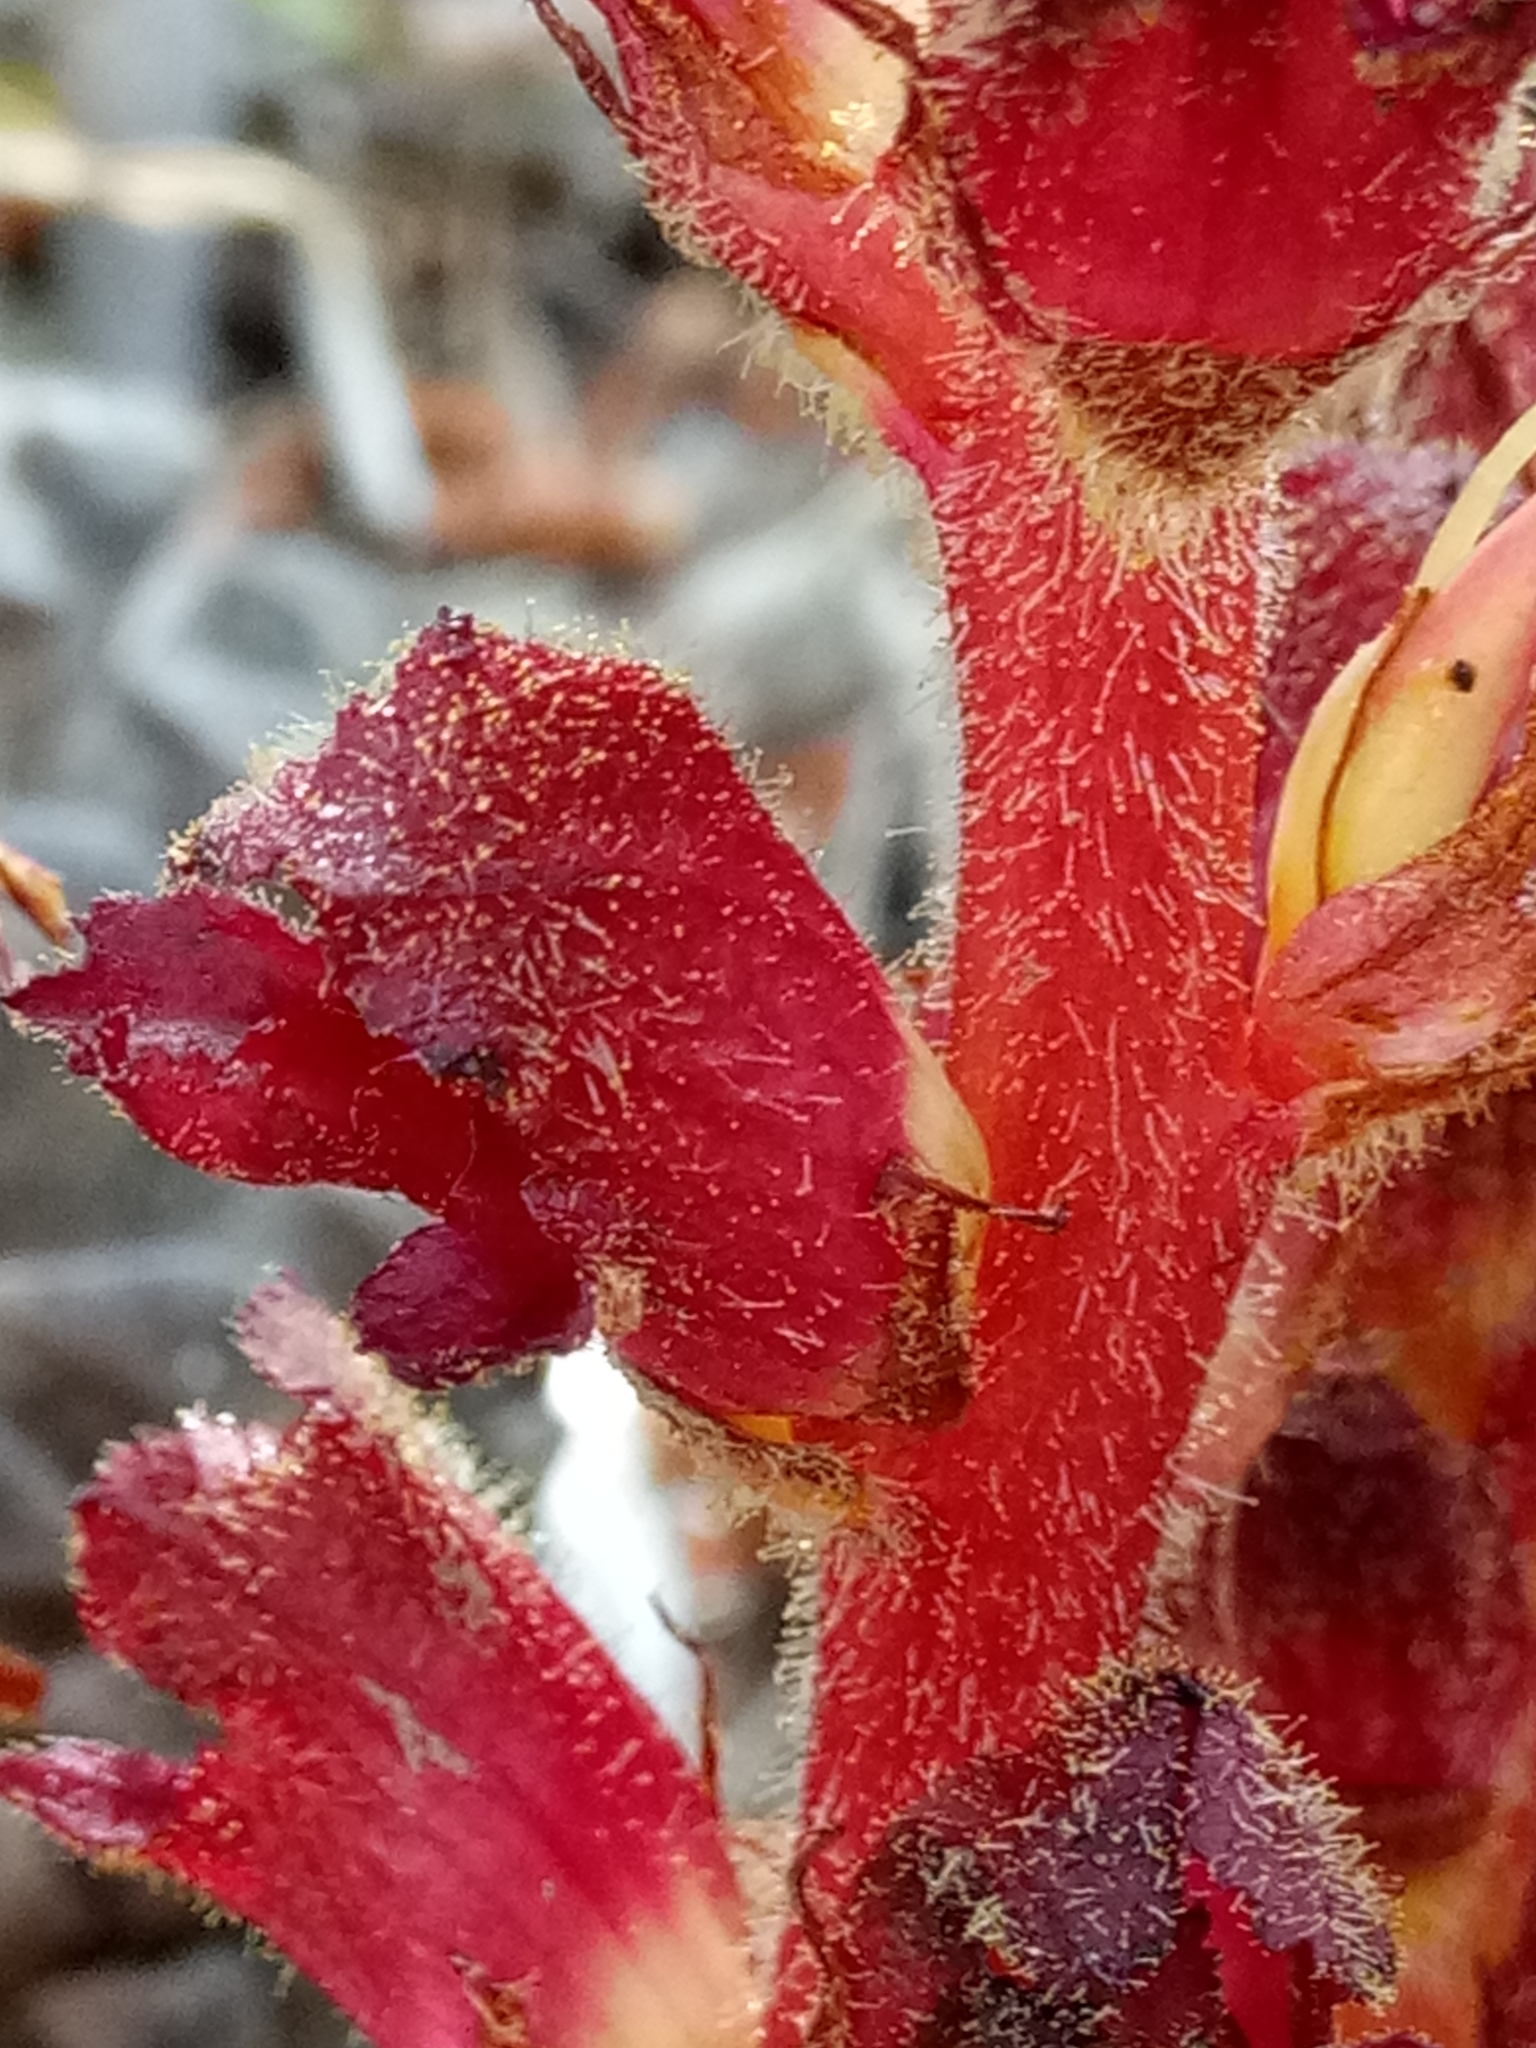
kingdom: Plantae
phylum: Tracheophyta
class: Magnoliopsida
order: Lamiales
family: Orobanchaceae
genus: Orobanche
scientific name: Orobanche variegata
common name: Variegated broomrape
